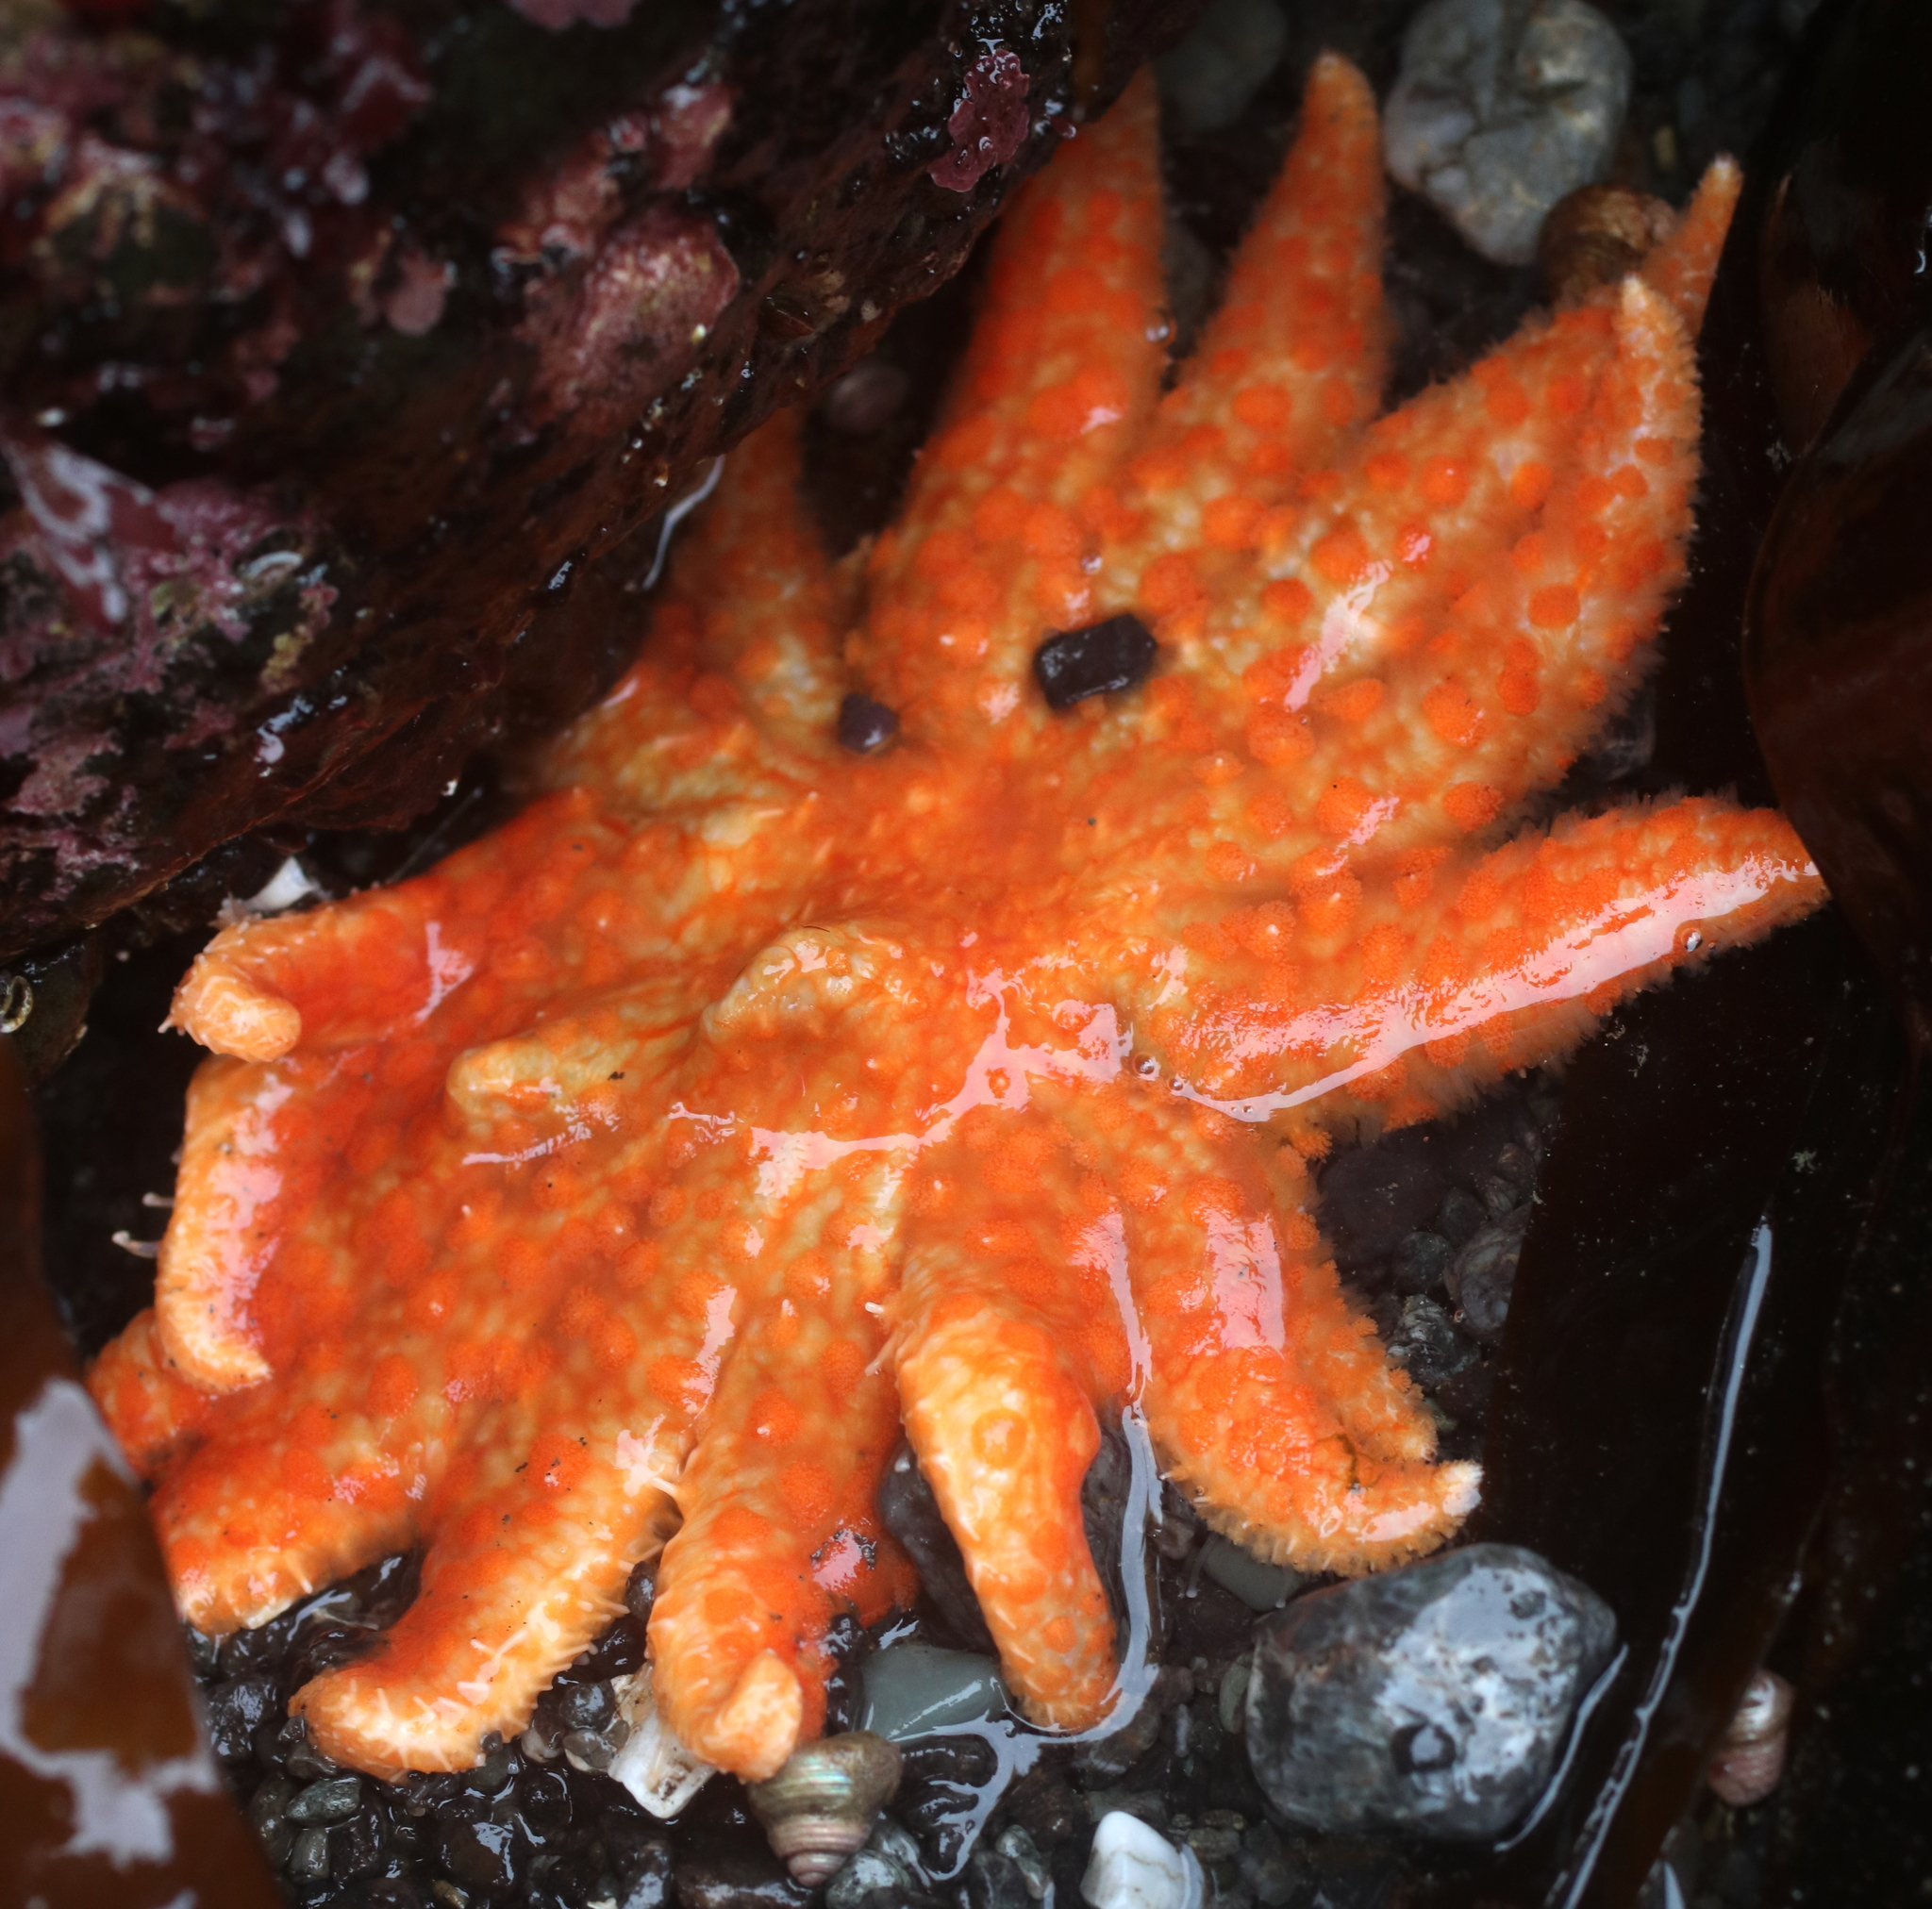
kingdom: Animalia
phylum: Echinodermata
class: Asteroidea
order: Forcipulatida
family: Asteriidae
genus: Pycnopodia
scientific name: Pycnopodia helianthoides
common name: Rag mop
